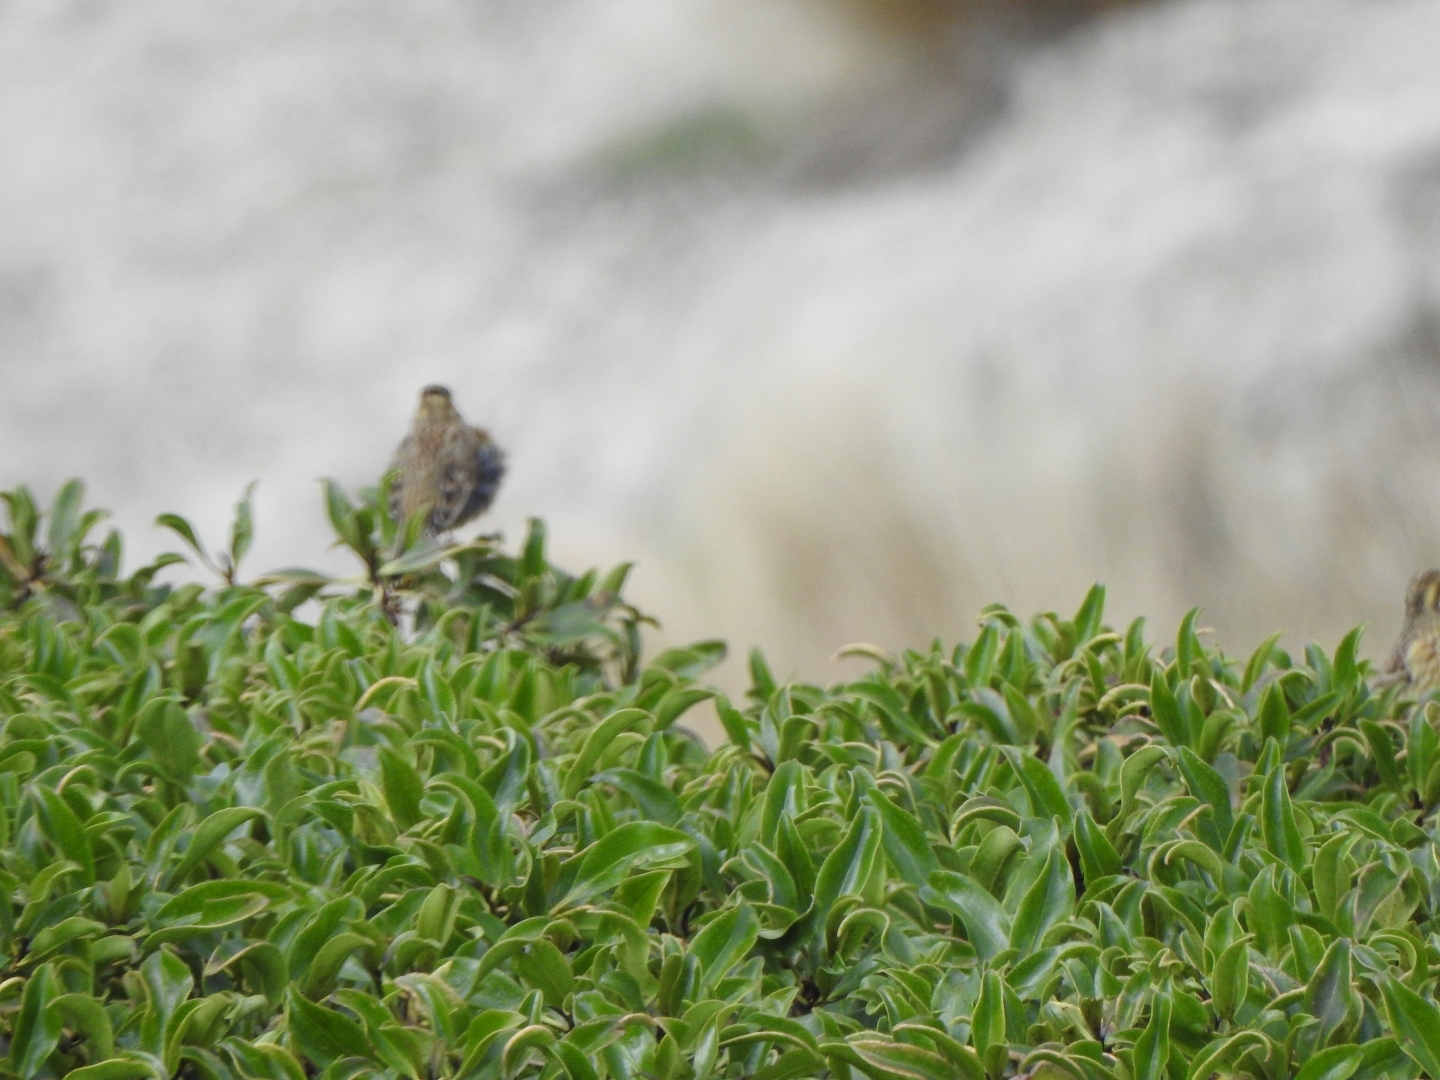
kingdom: Animalia
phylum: Chordata
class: Aves
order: Passeriformes
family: Emberizidae
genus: Emberiza
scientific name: Emberiza cirlus
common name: Cirl bunting
